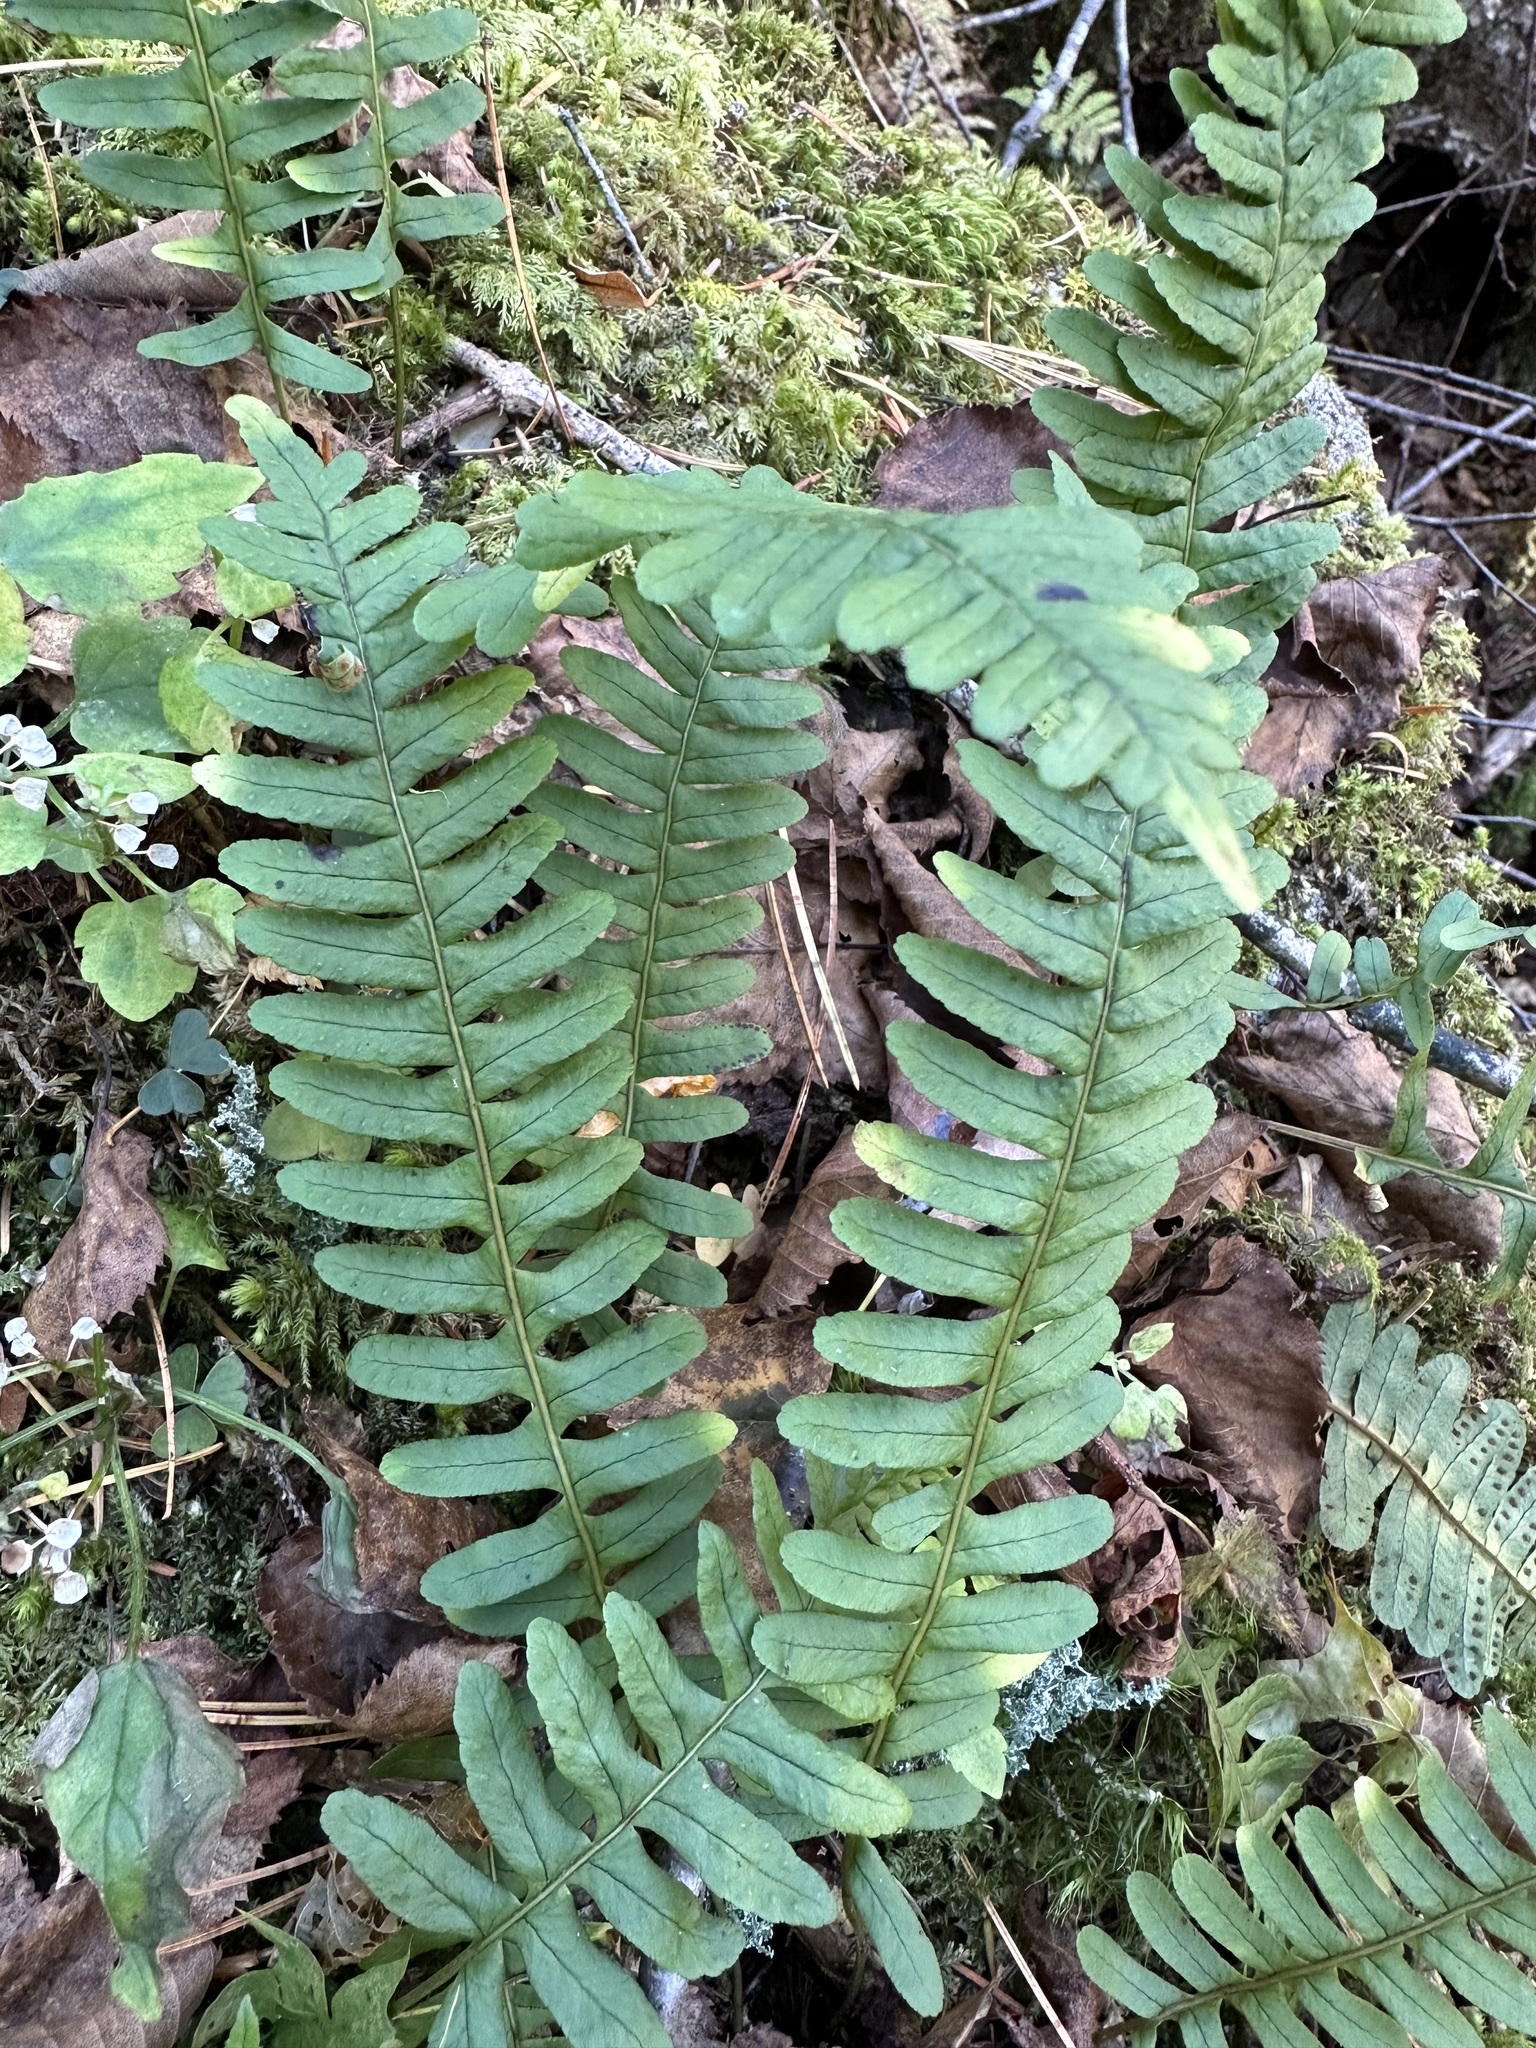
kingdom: Plantae
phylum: Tracheophyta
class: Polypodiopsida
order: Polypodiales
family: Polypodiaceae
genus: Polypodium
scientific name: Polypodium sibiricum
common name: Siberian polypody
